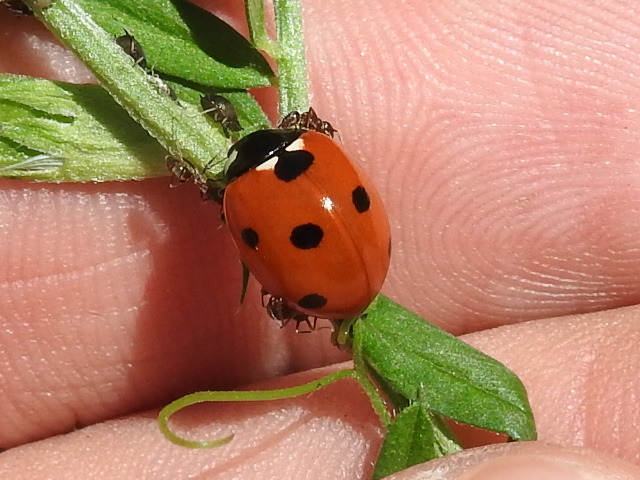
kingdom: Animalia
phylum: Arthropoda
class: Insecta
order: Coleoptera
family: Coccinellidae
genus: Coccinella
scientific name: Coccinella septempunctata
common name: Sevenspotted lady beetle
